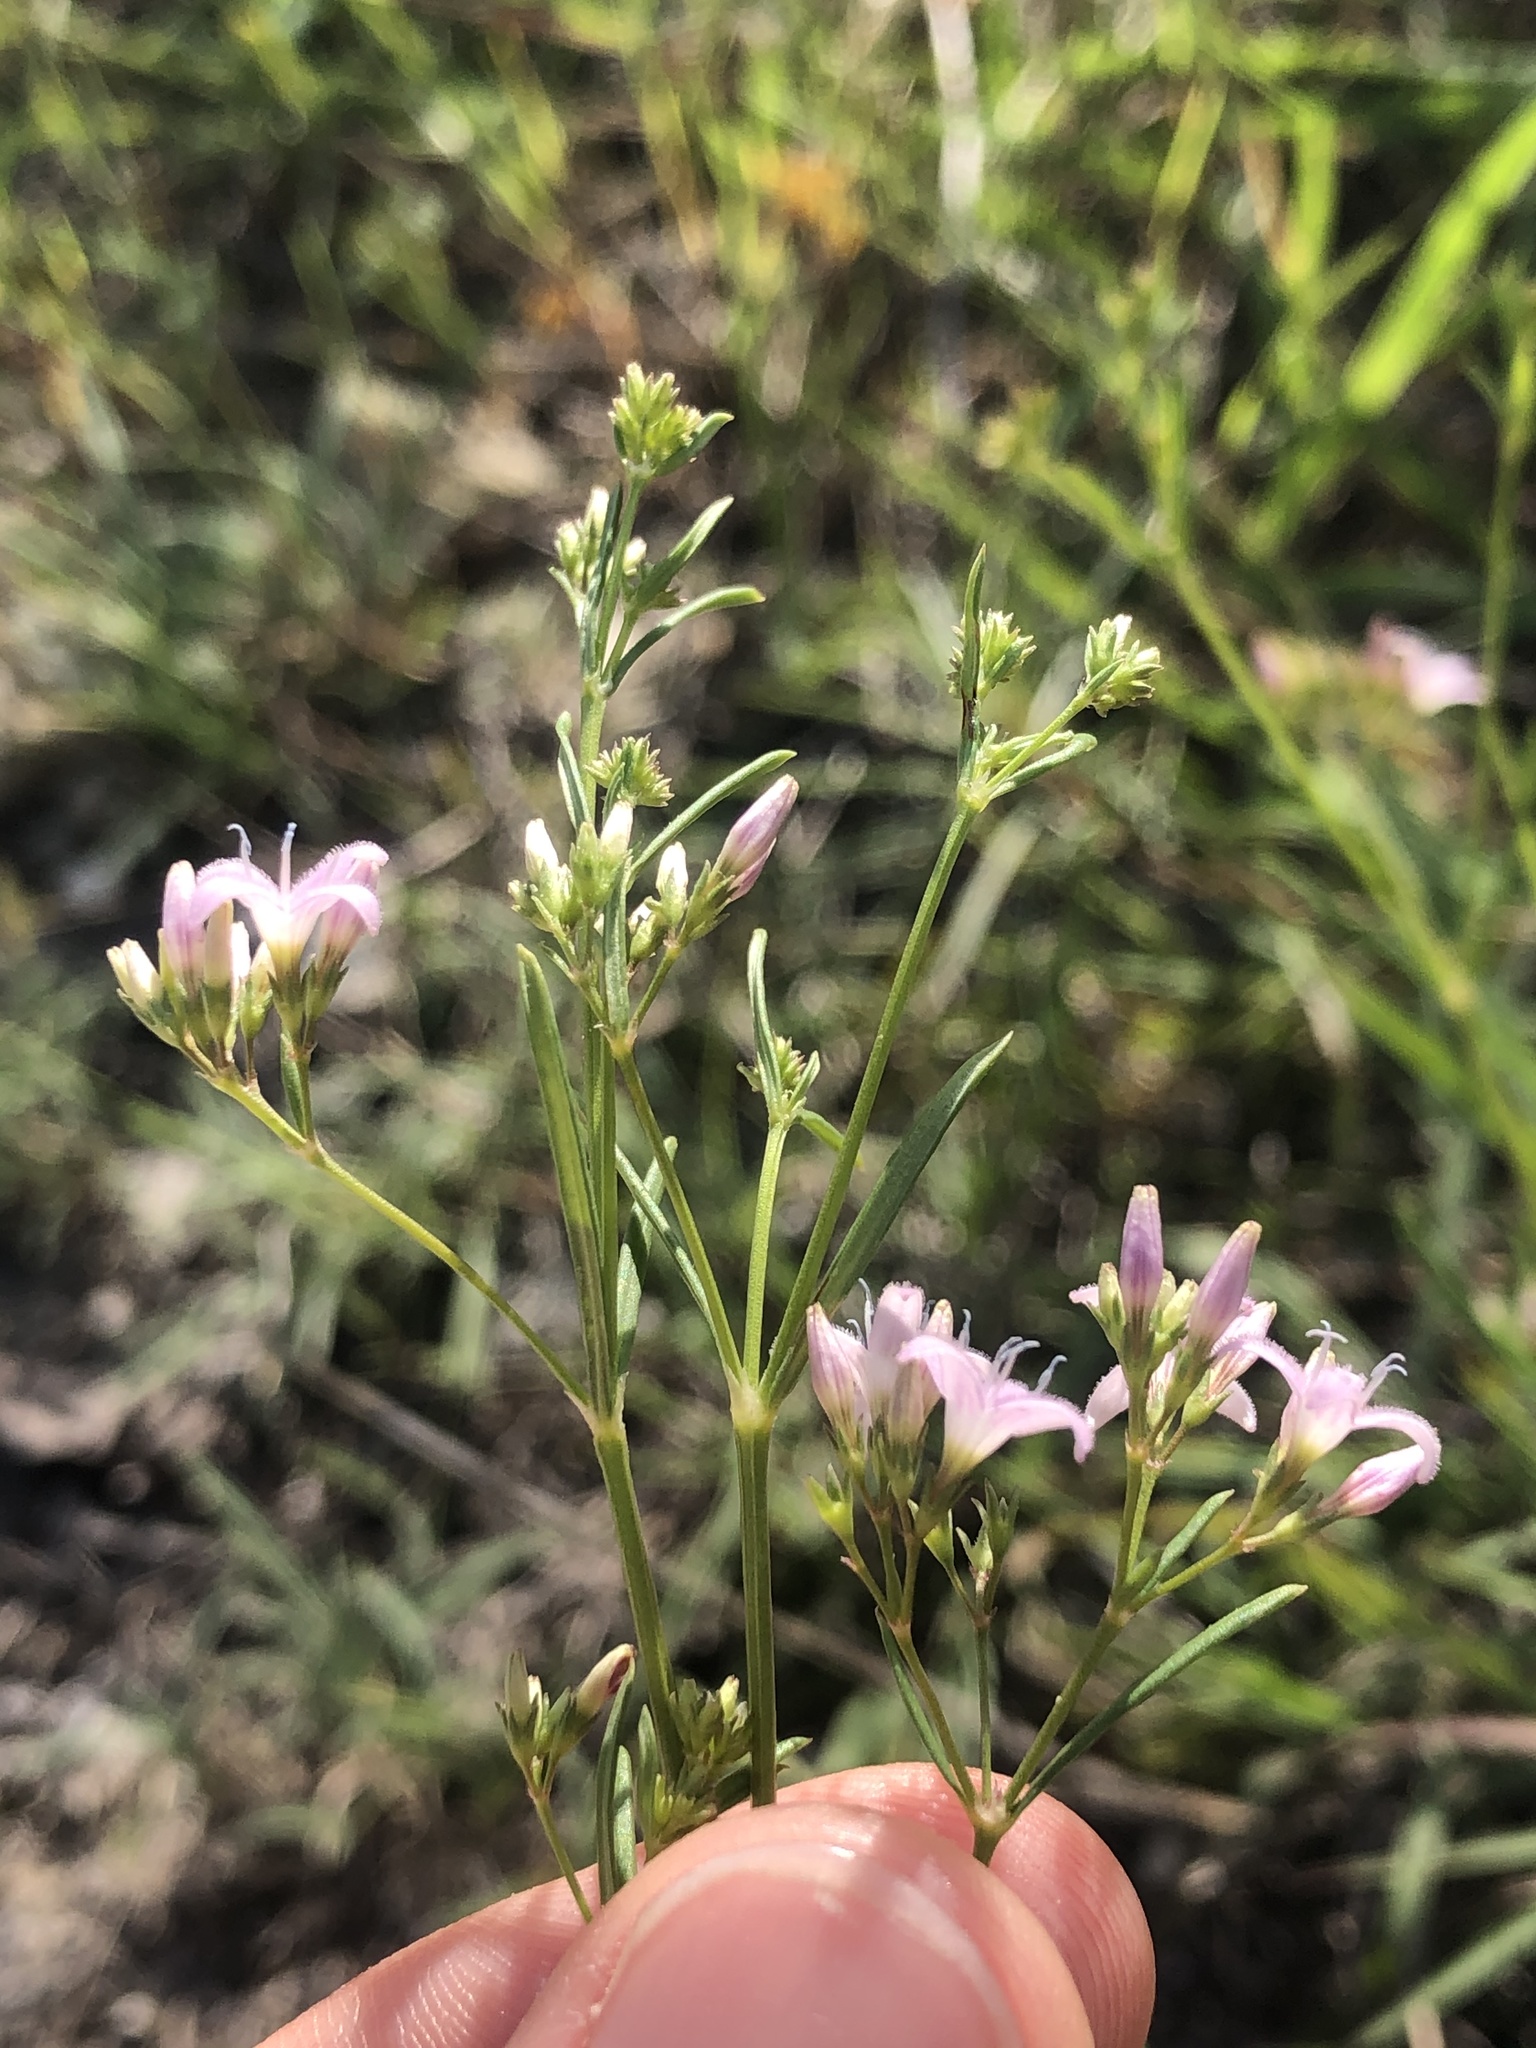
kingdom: Plantae
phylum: Tracheophyta
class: Magnoliopsida
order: Gentianales
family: Rubiaceae
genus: Stenaria
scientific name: Stenaria nigricans
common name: Diamondflowers
